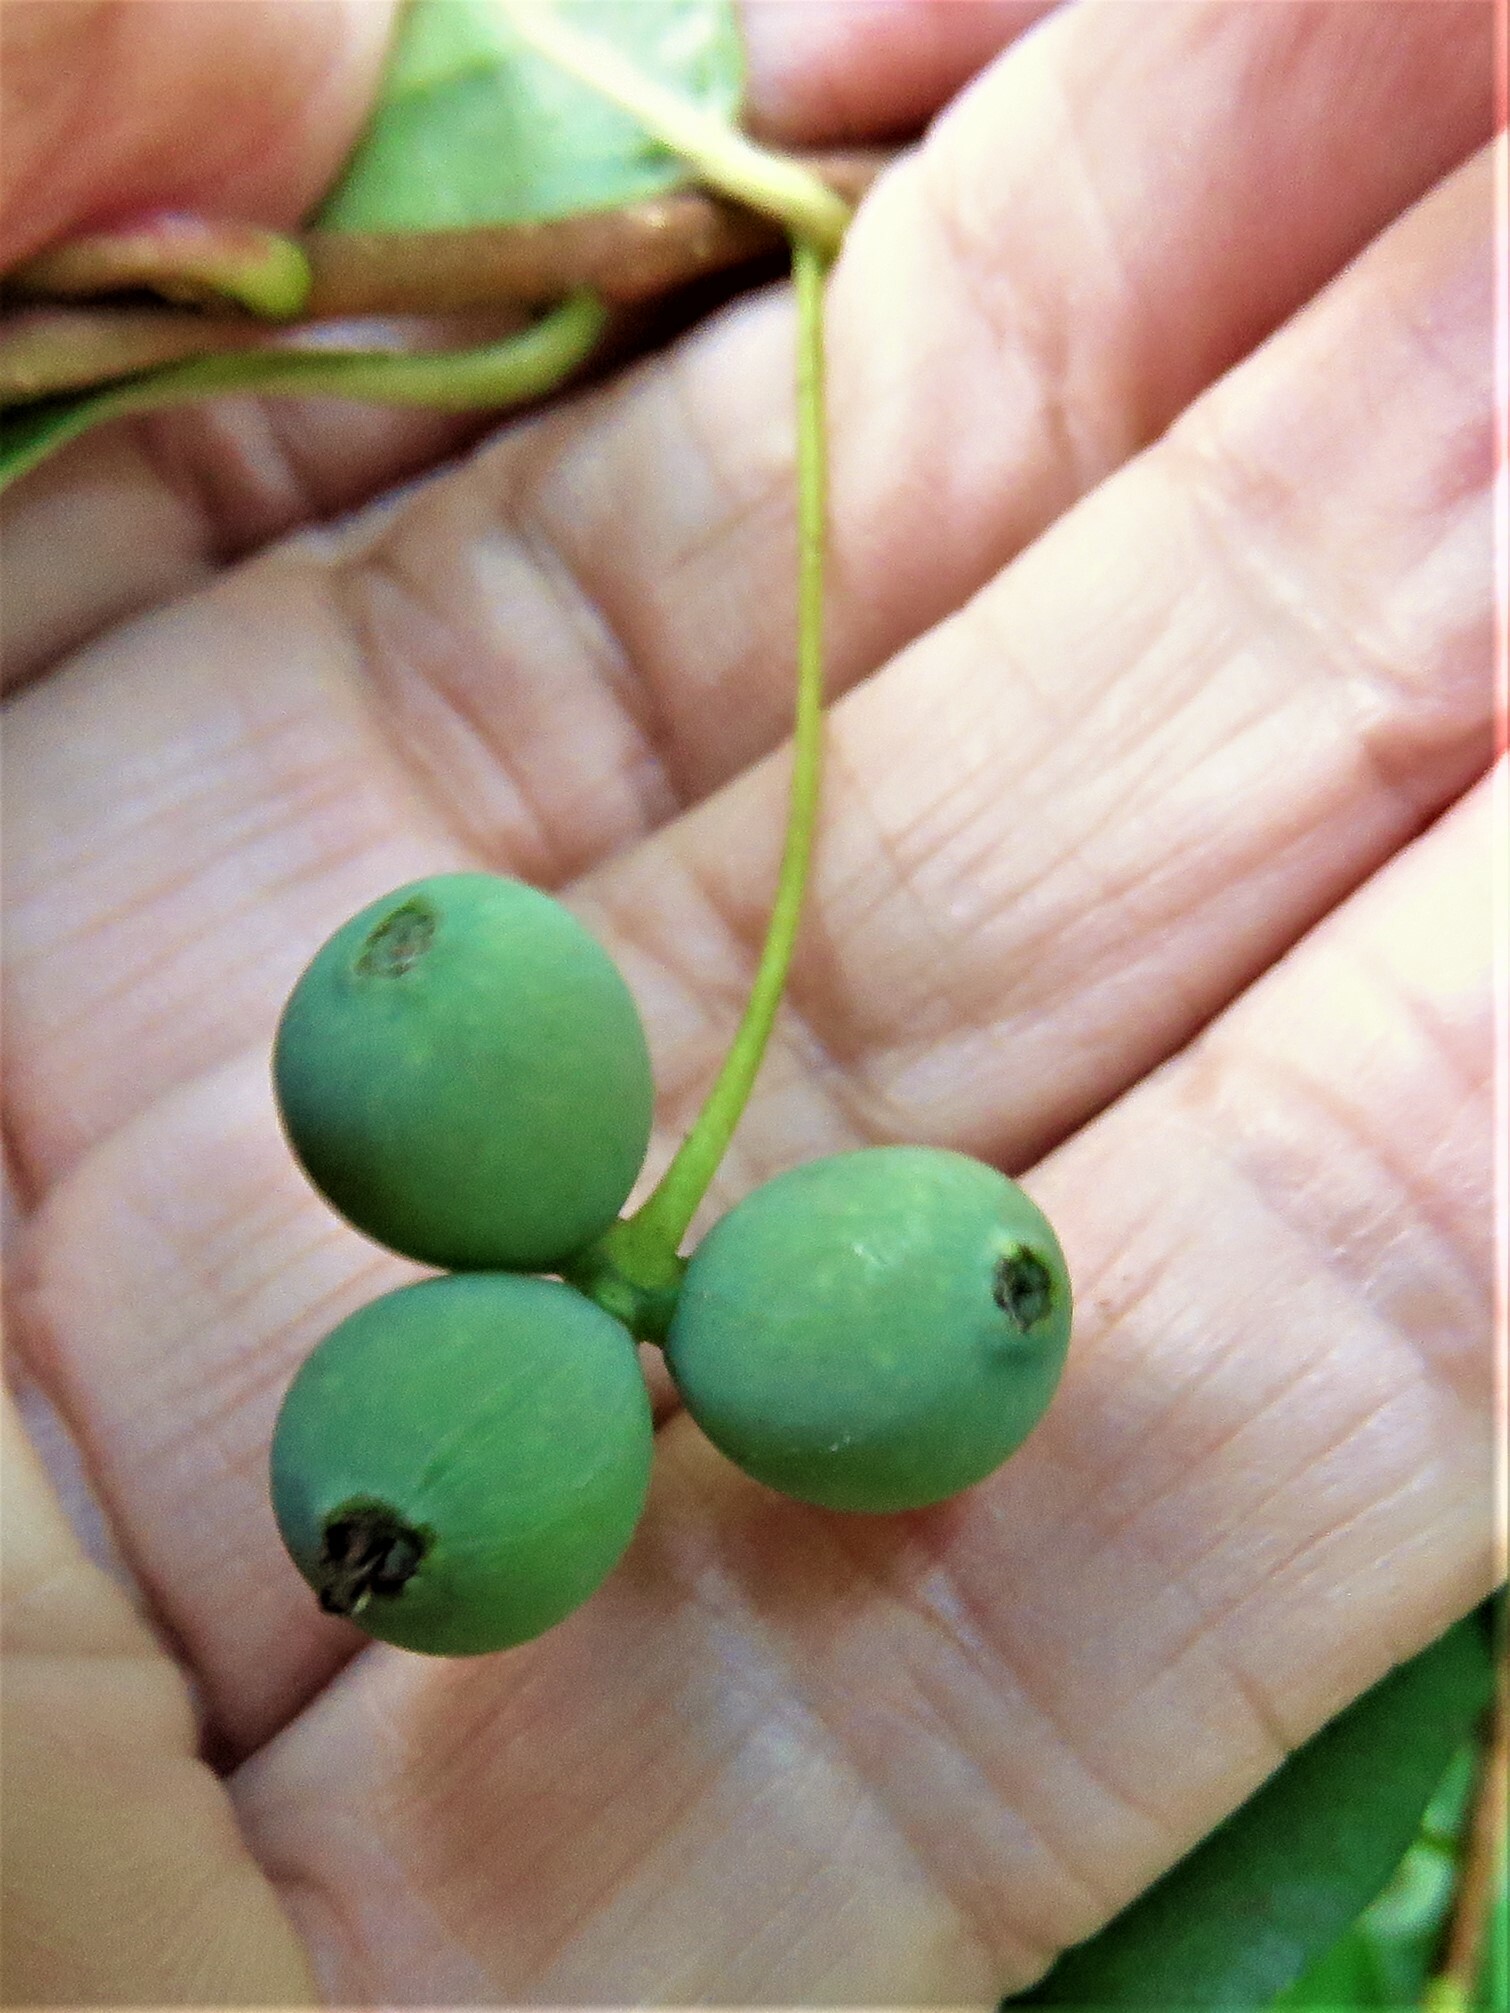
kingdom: Plantae
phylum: Tracheophyta
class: Magnoliopsida
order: Cornales
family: Nyssaceae
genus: Nyssa
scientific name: Nyssa sylvatica
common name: Black tupelo
